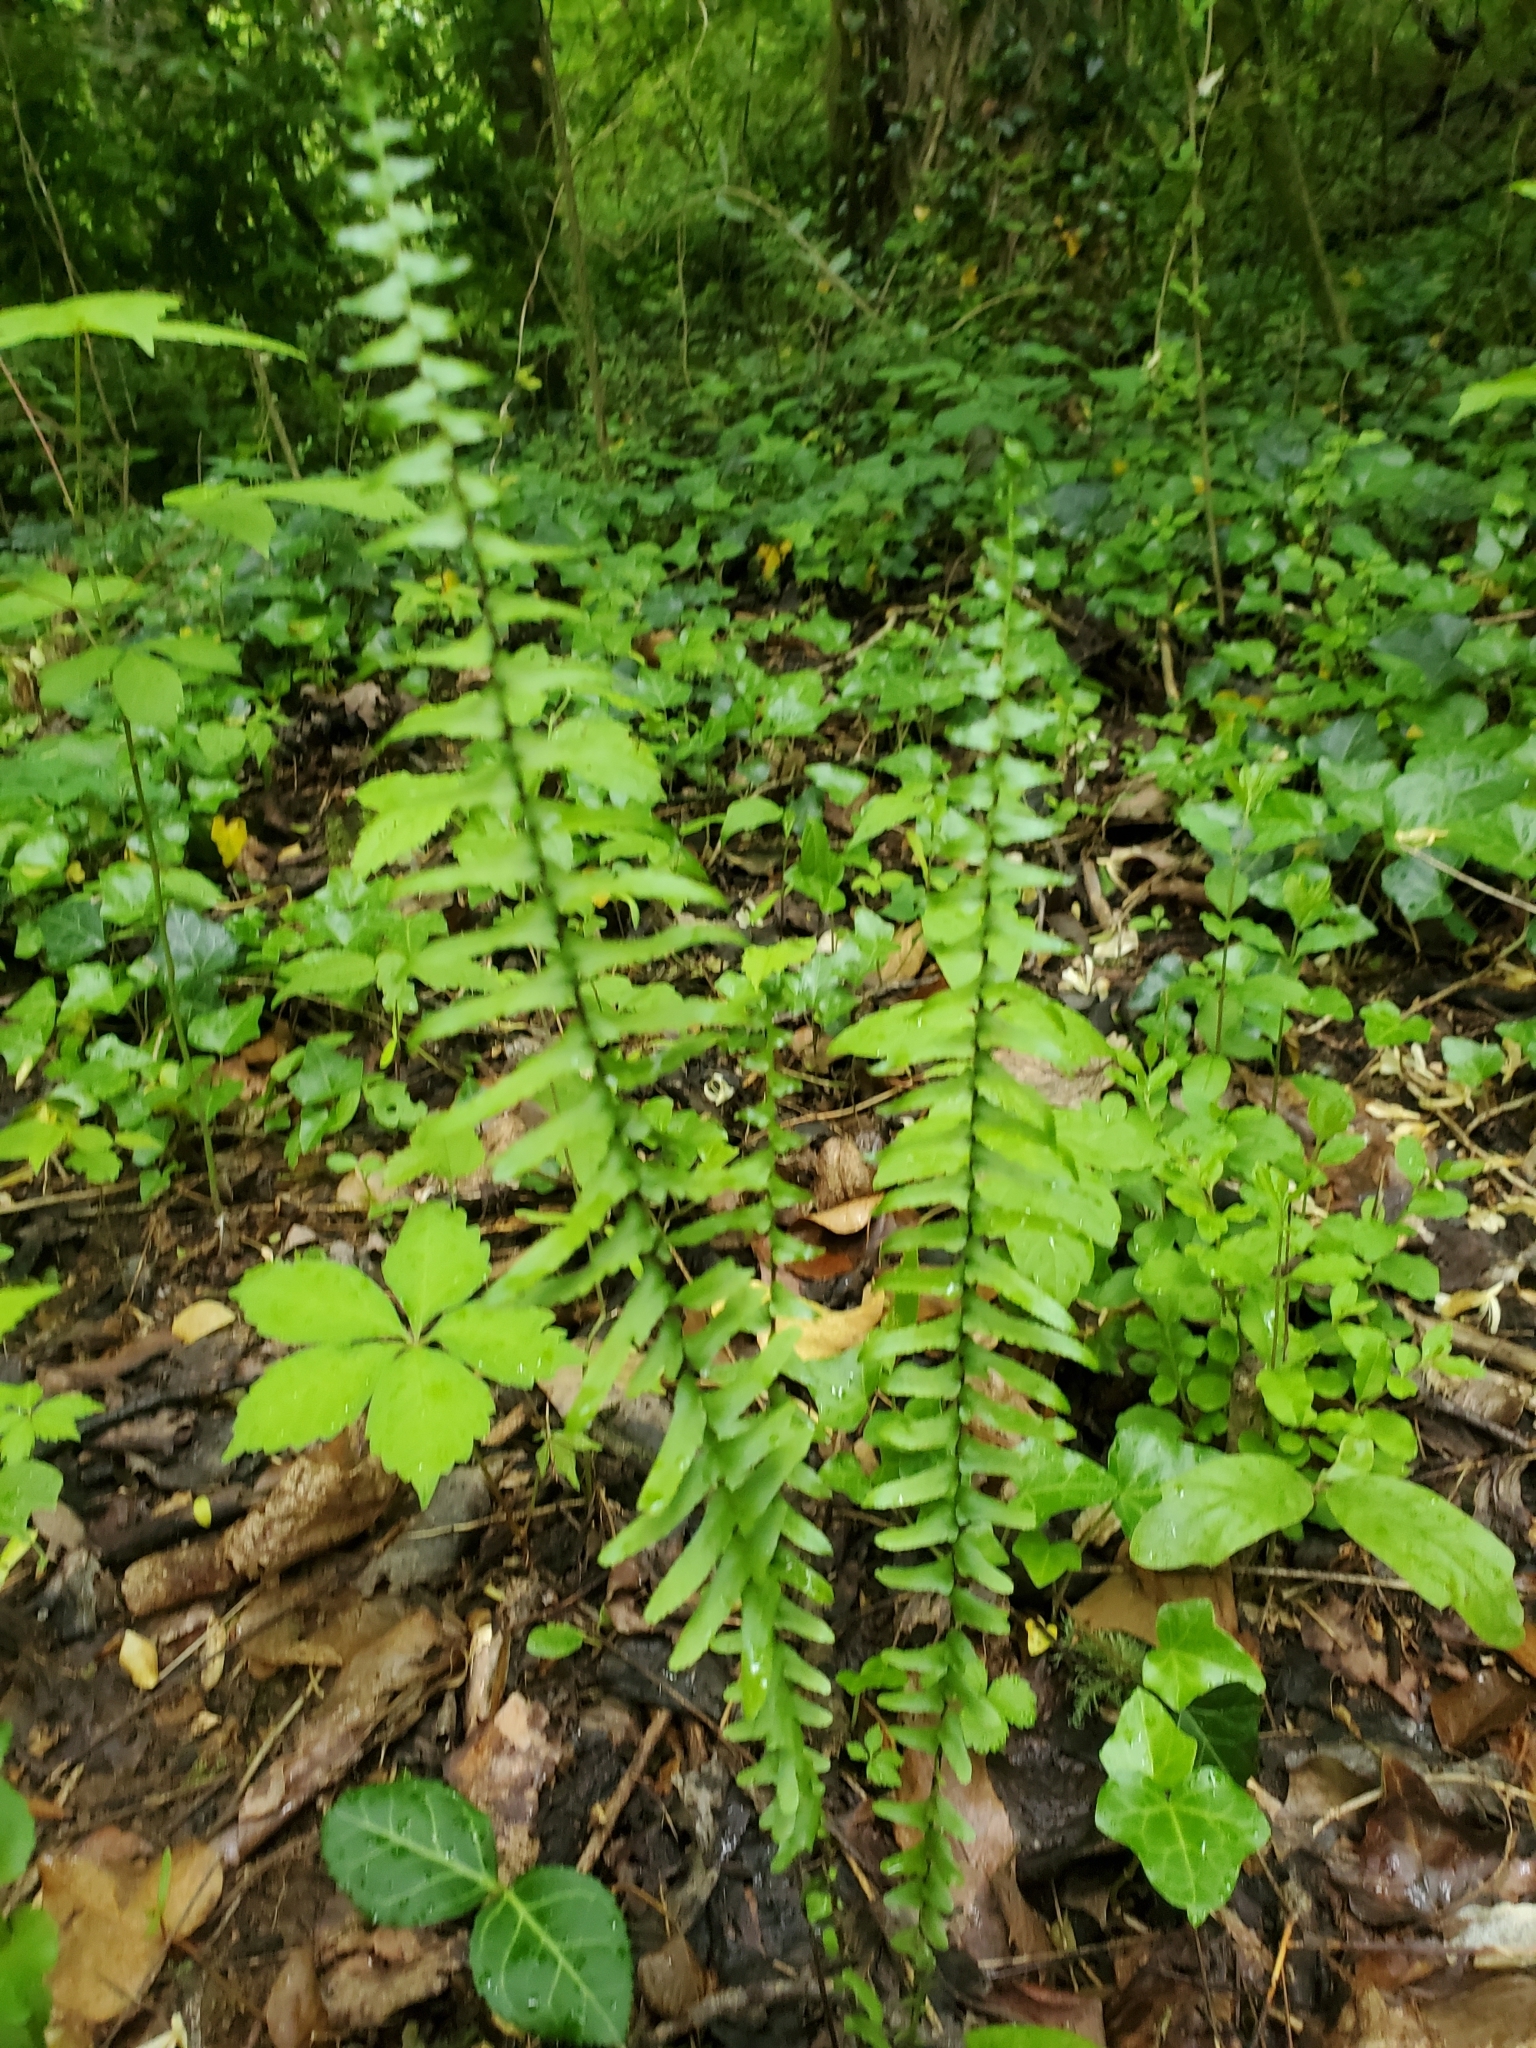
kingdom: Plantae
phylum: Tracheophyta
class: Polypodiopsida
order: Polypodiales
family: Aspleniaceae
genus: Asplenium
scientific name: Asplenium platyneuron
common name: Ebony spleenwort
